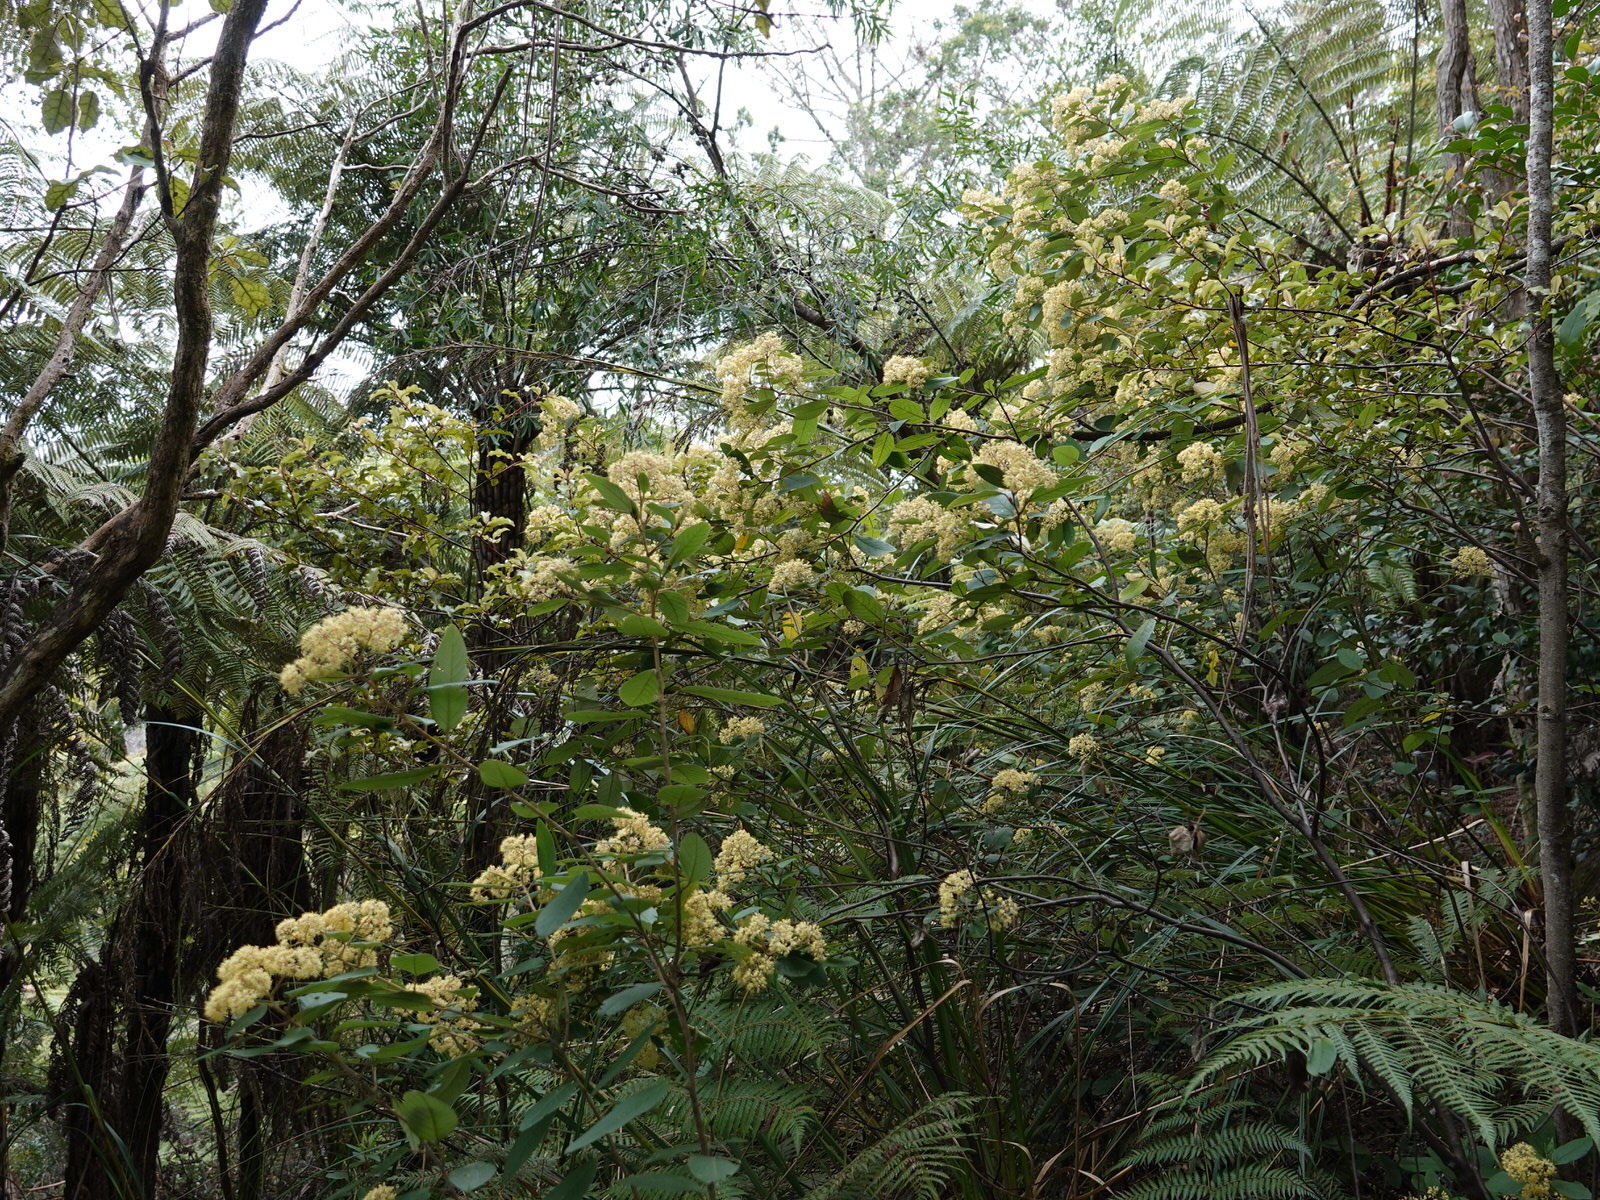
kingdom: Plantae
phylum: Tracheophyta
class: Magnoliopsida
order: Rosales
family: Rhamnaceae
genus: Pomaderris
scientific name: Pomaderris kumeraho
